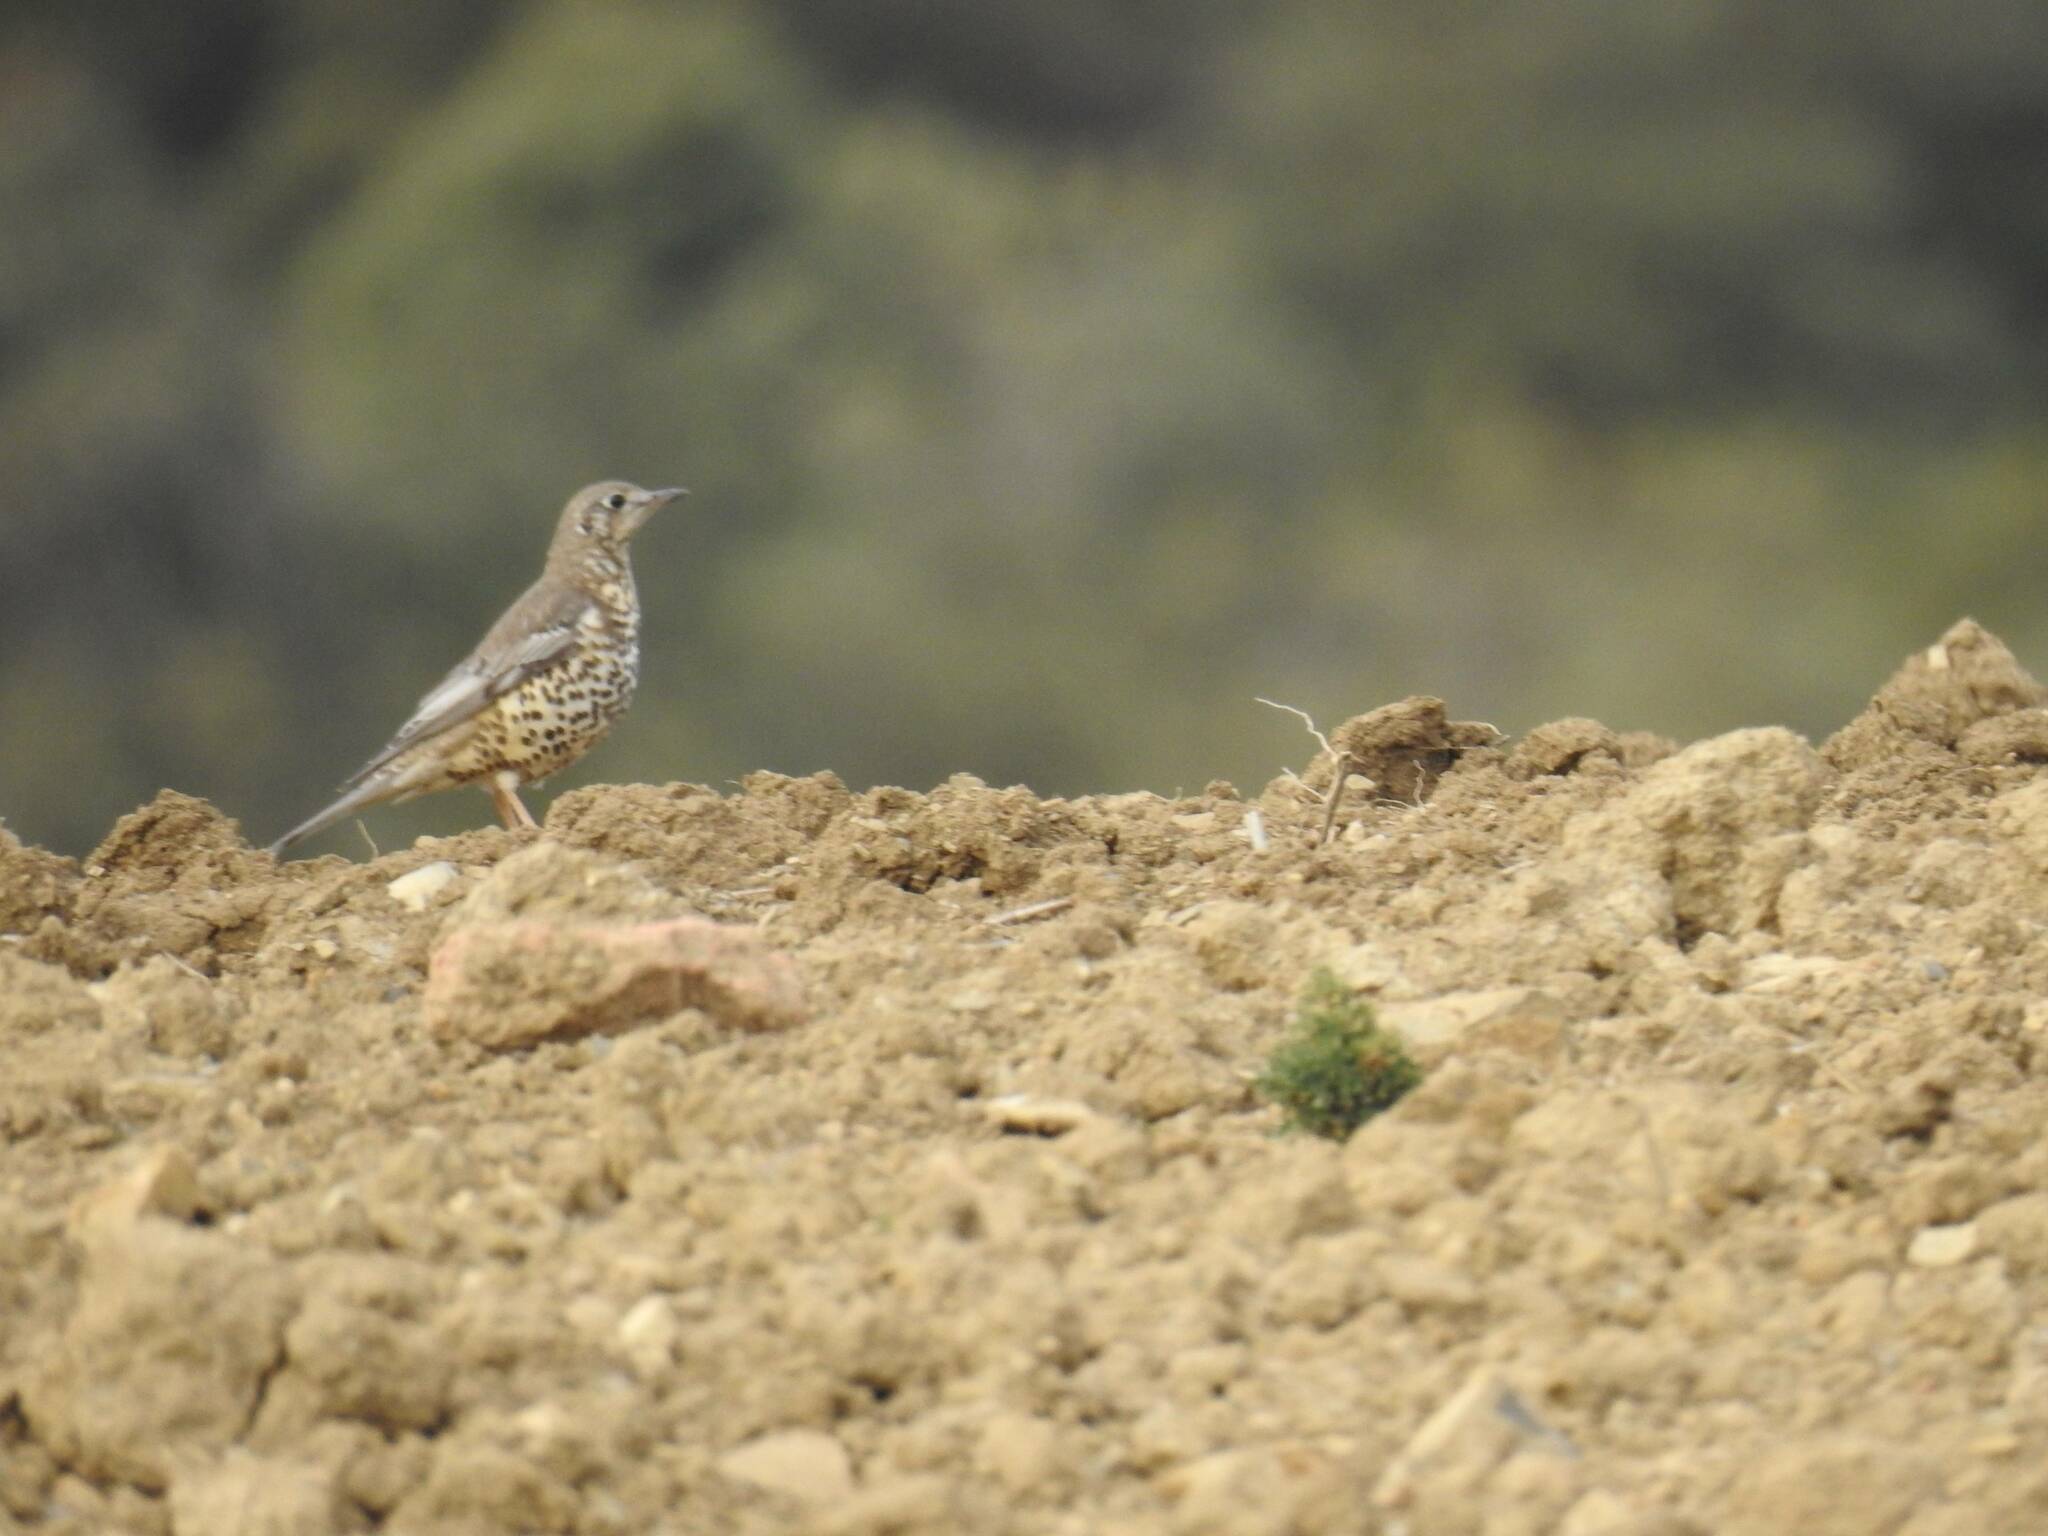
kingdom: Animalia
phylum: Chordata
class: Aves
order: Passeriformes
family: Turdidae
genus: Turdus
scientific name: Turdus viscivorus
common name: Mistle thrush
